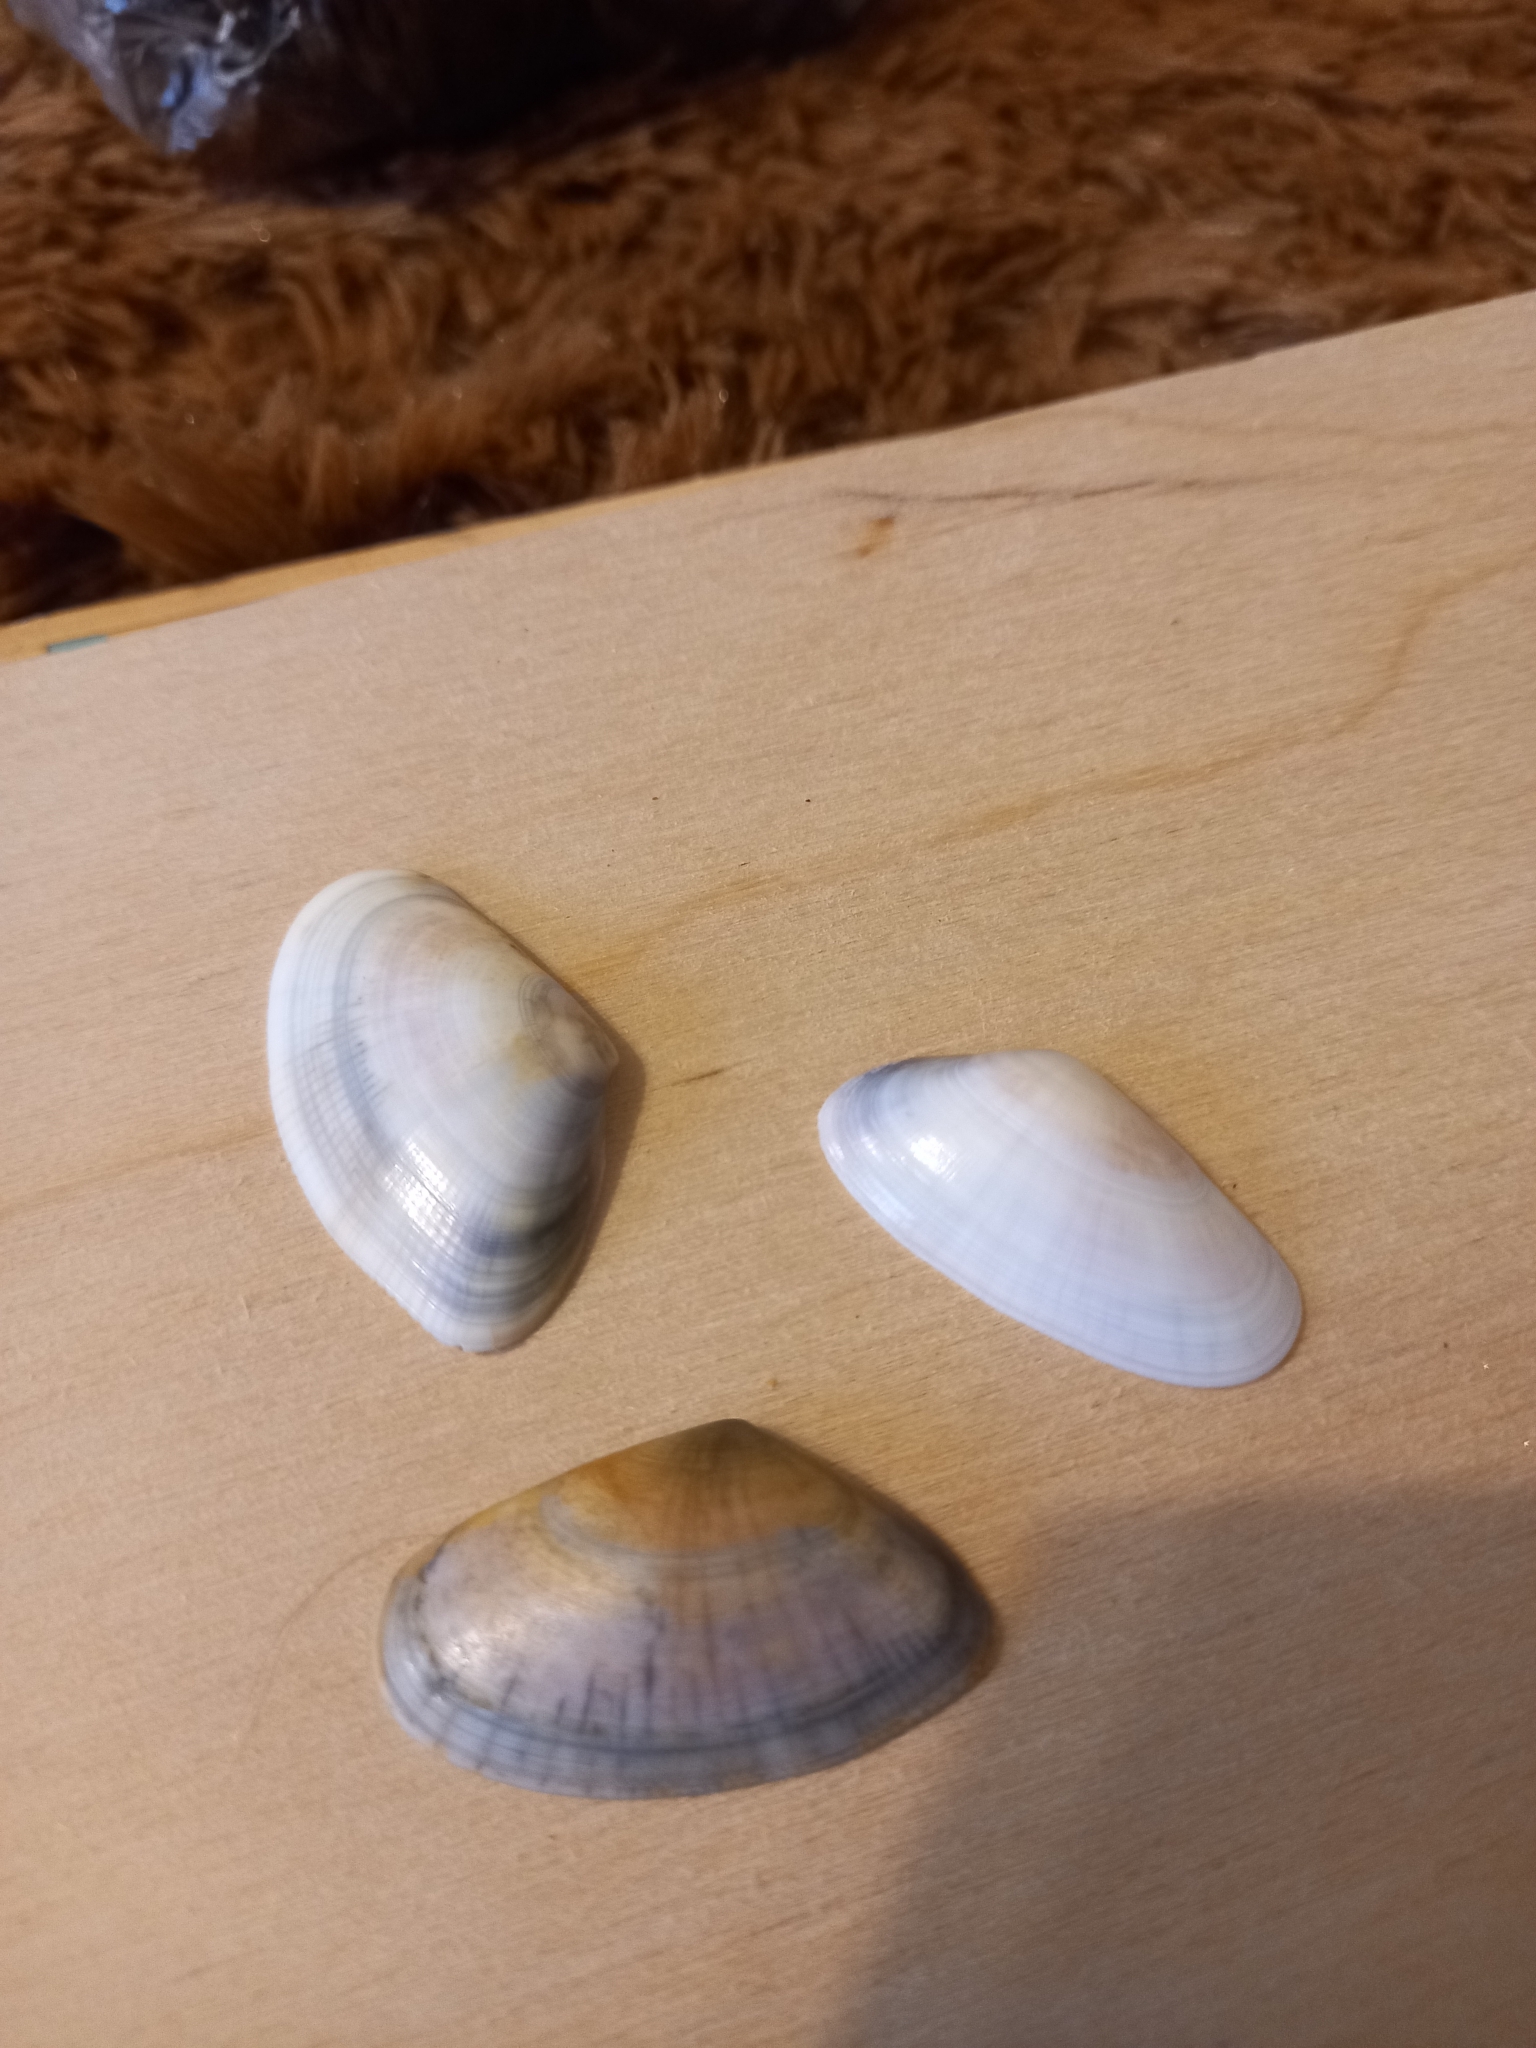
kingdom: Animalia
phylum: Mollusca
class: Bivalvia
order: Cardiida
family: Donacidae
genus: Donax
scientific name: Donax trunculus
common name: Truncate donax
